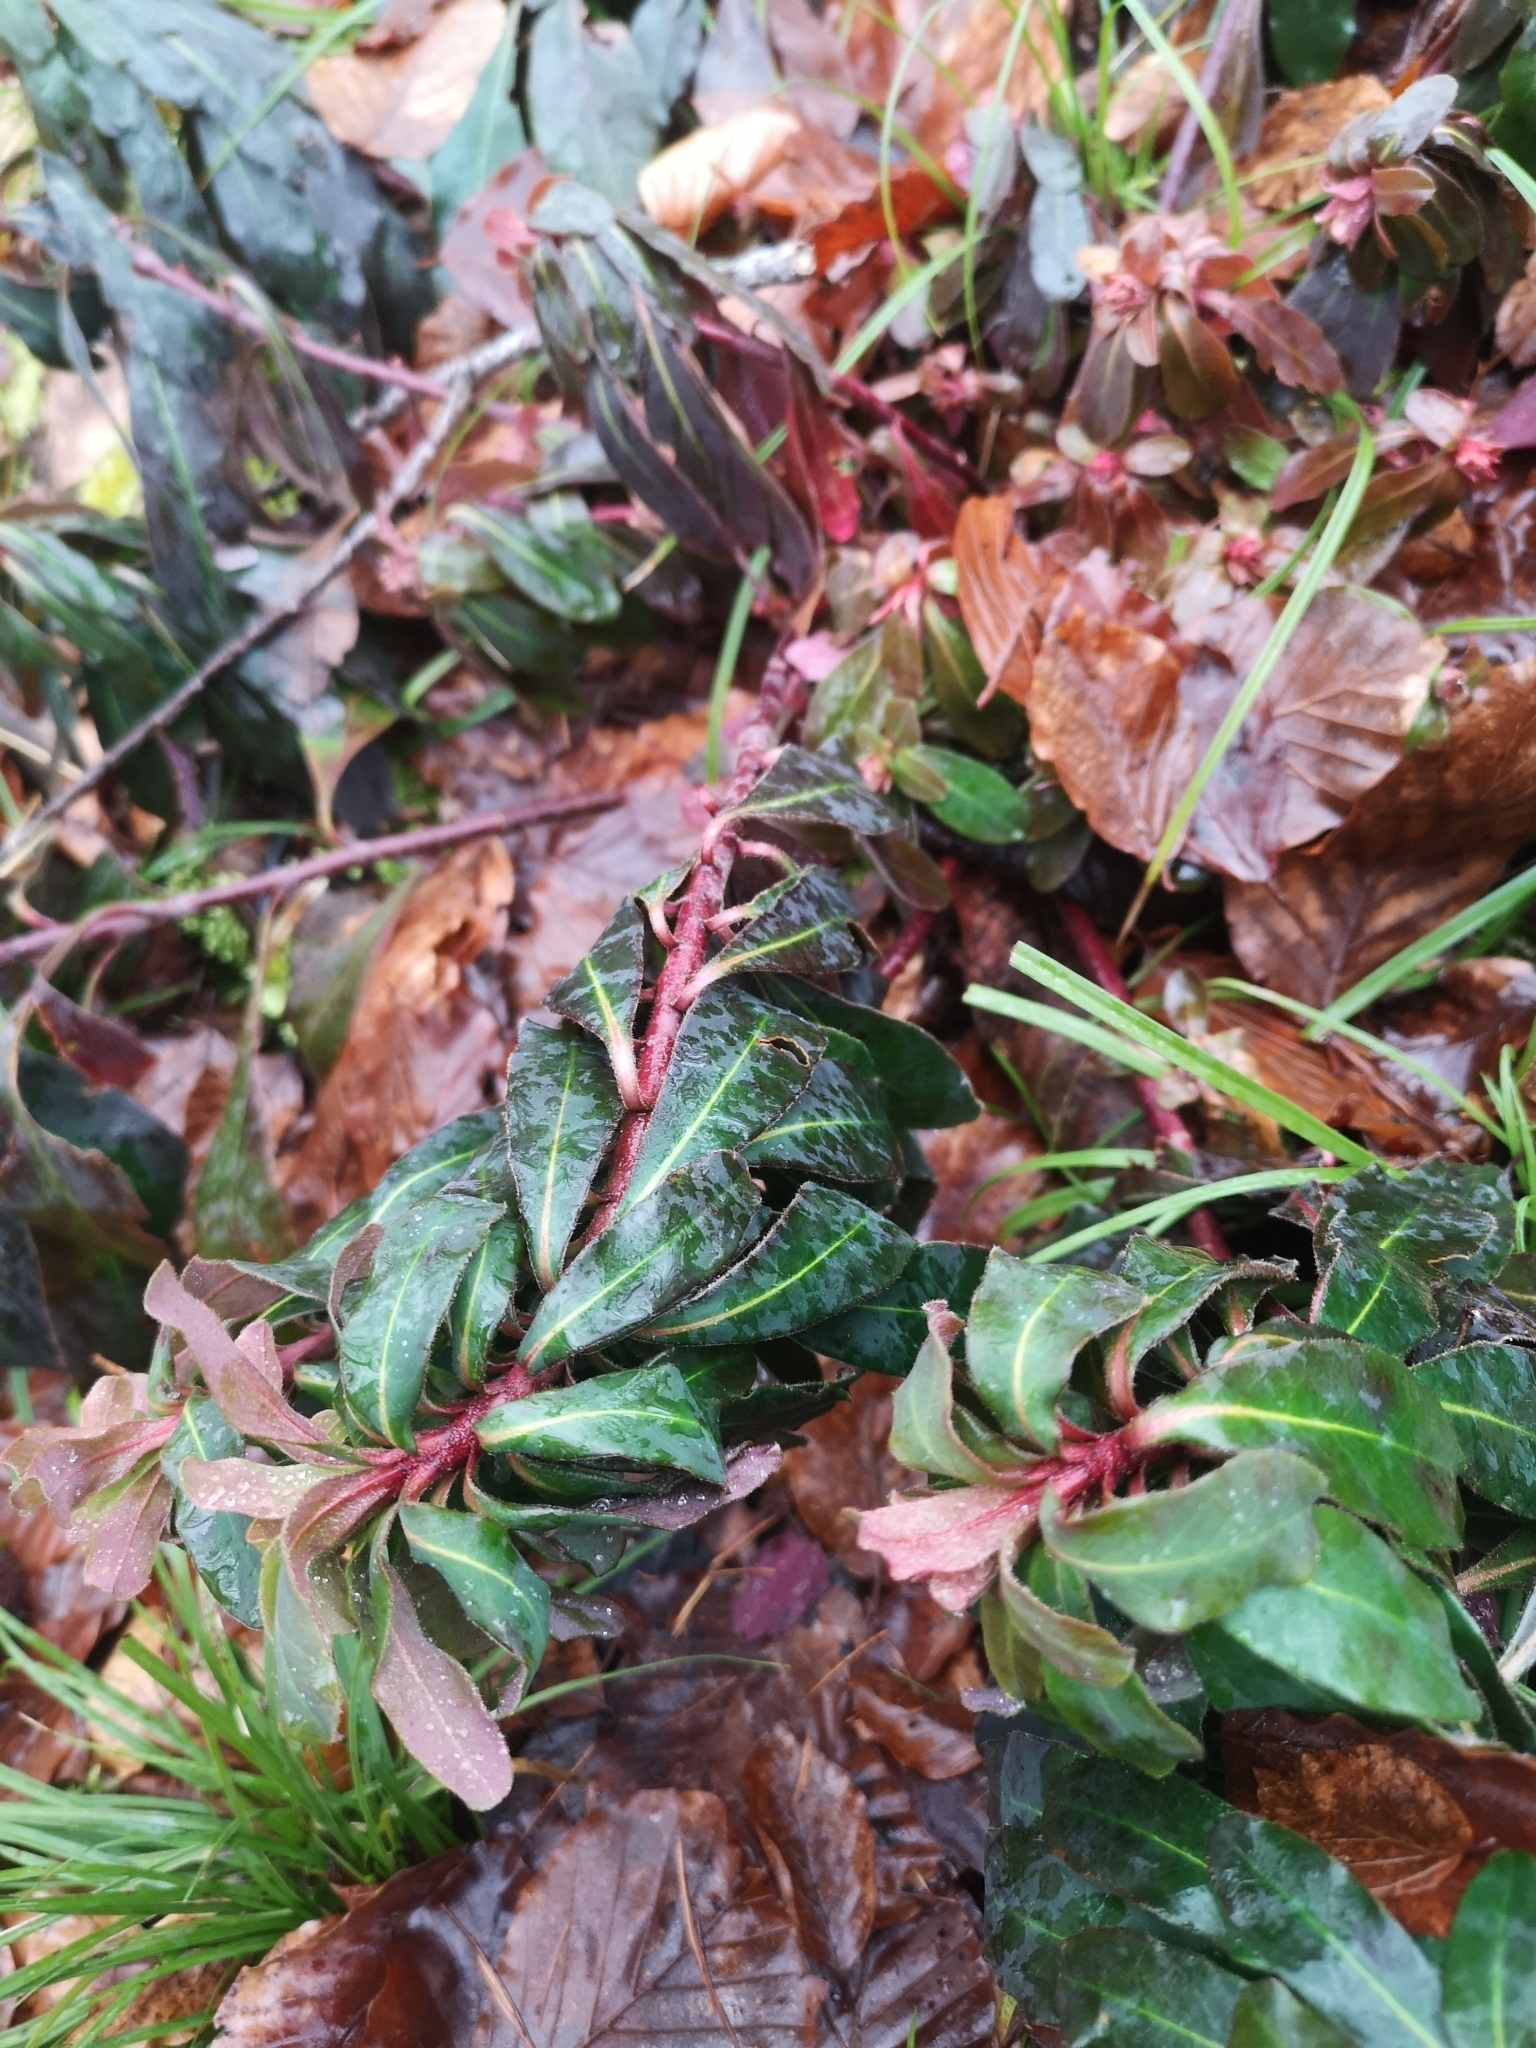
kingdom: Plantae
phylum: Tracheophyta
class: Magnoliopsida
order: Malpighiales
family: Euphorbiaceae
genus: Euphorbia
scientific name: Euphorbia amygdaloides
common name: Wood spurge
